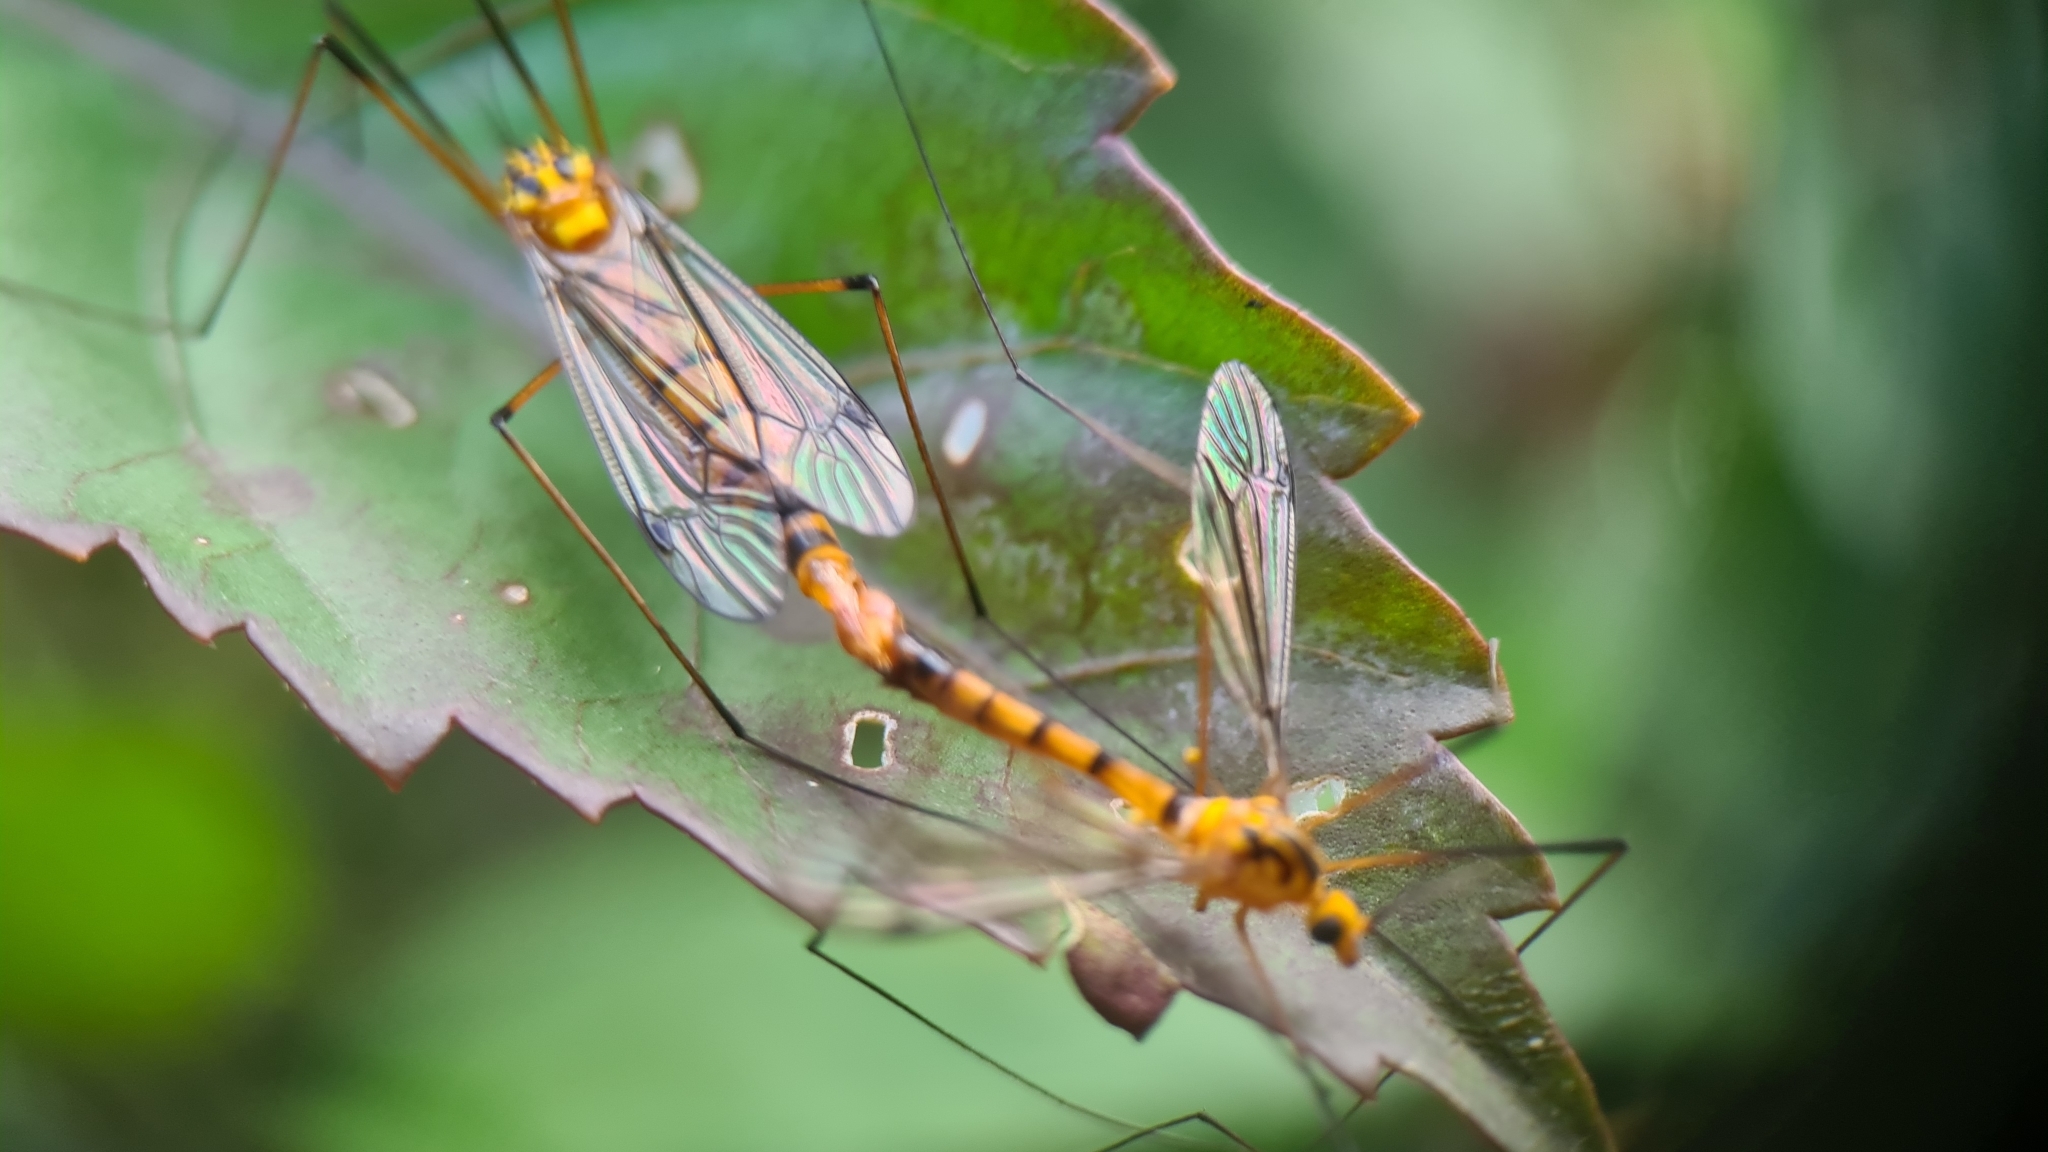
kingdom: Animalia
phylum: Arthropoda
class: Insecta
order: Diptera
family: Tipulidae
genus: Nephrotoma
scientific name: Nephrotoma australasiae
